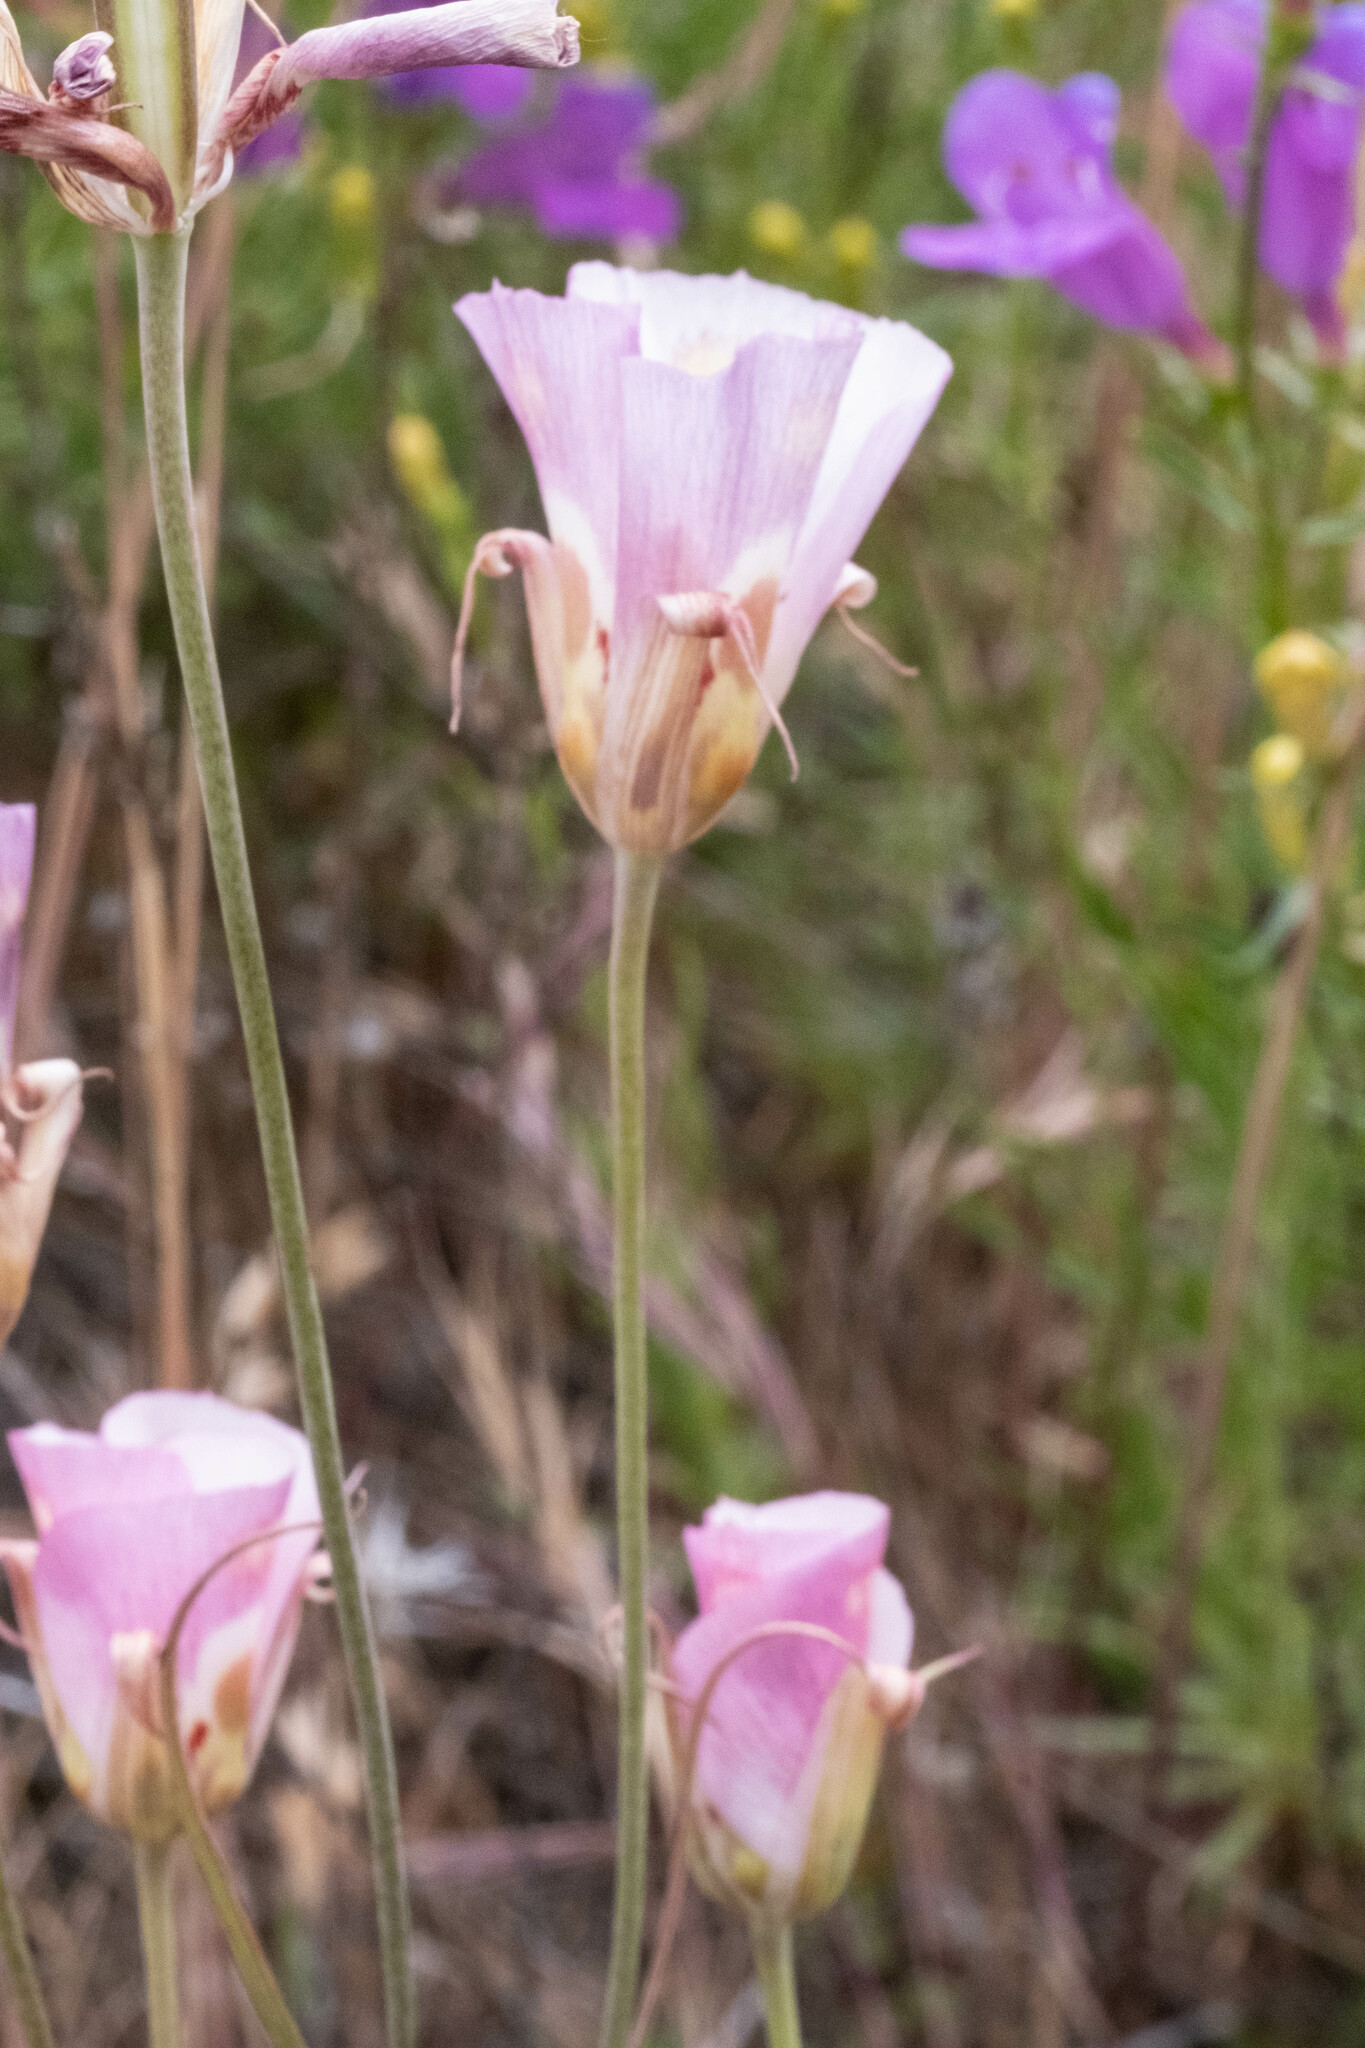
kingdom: Plantae
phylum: Tracheophyta
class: Liliopsida
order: Liliales
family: Liliaceae
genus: Calochortus
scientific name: Calochortus venustus
